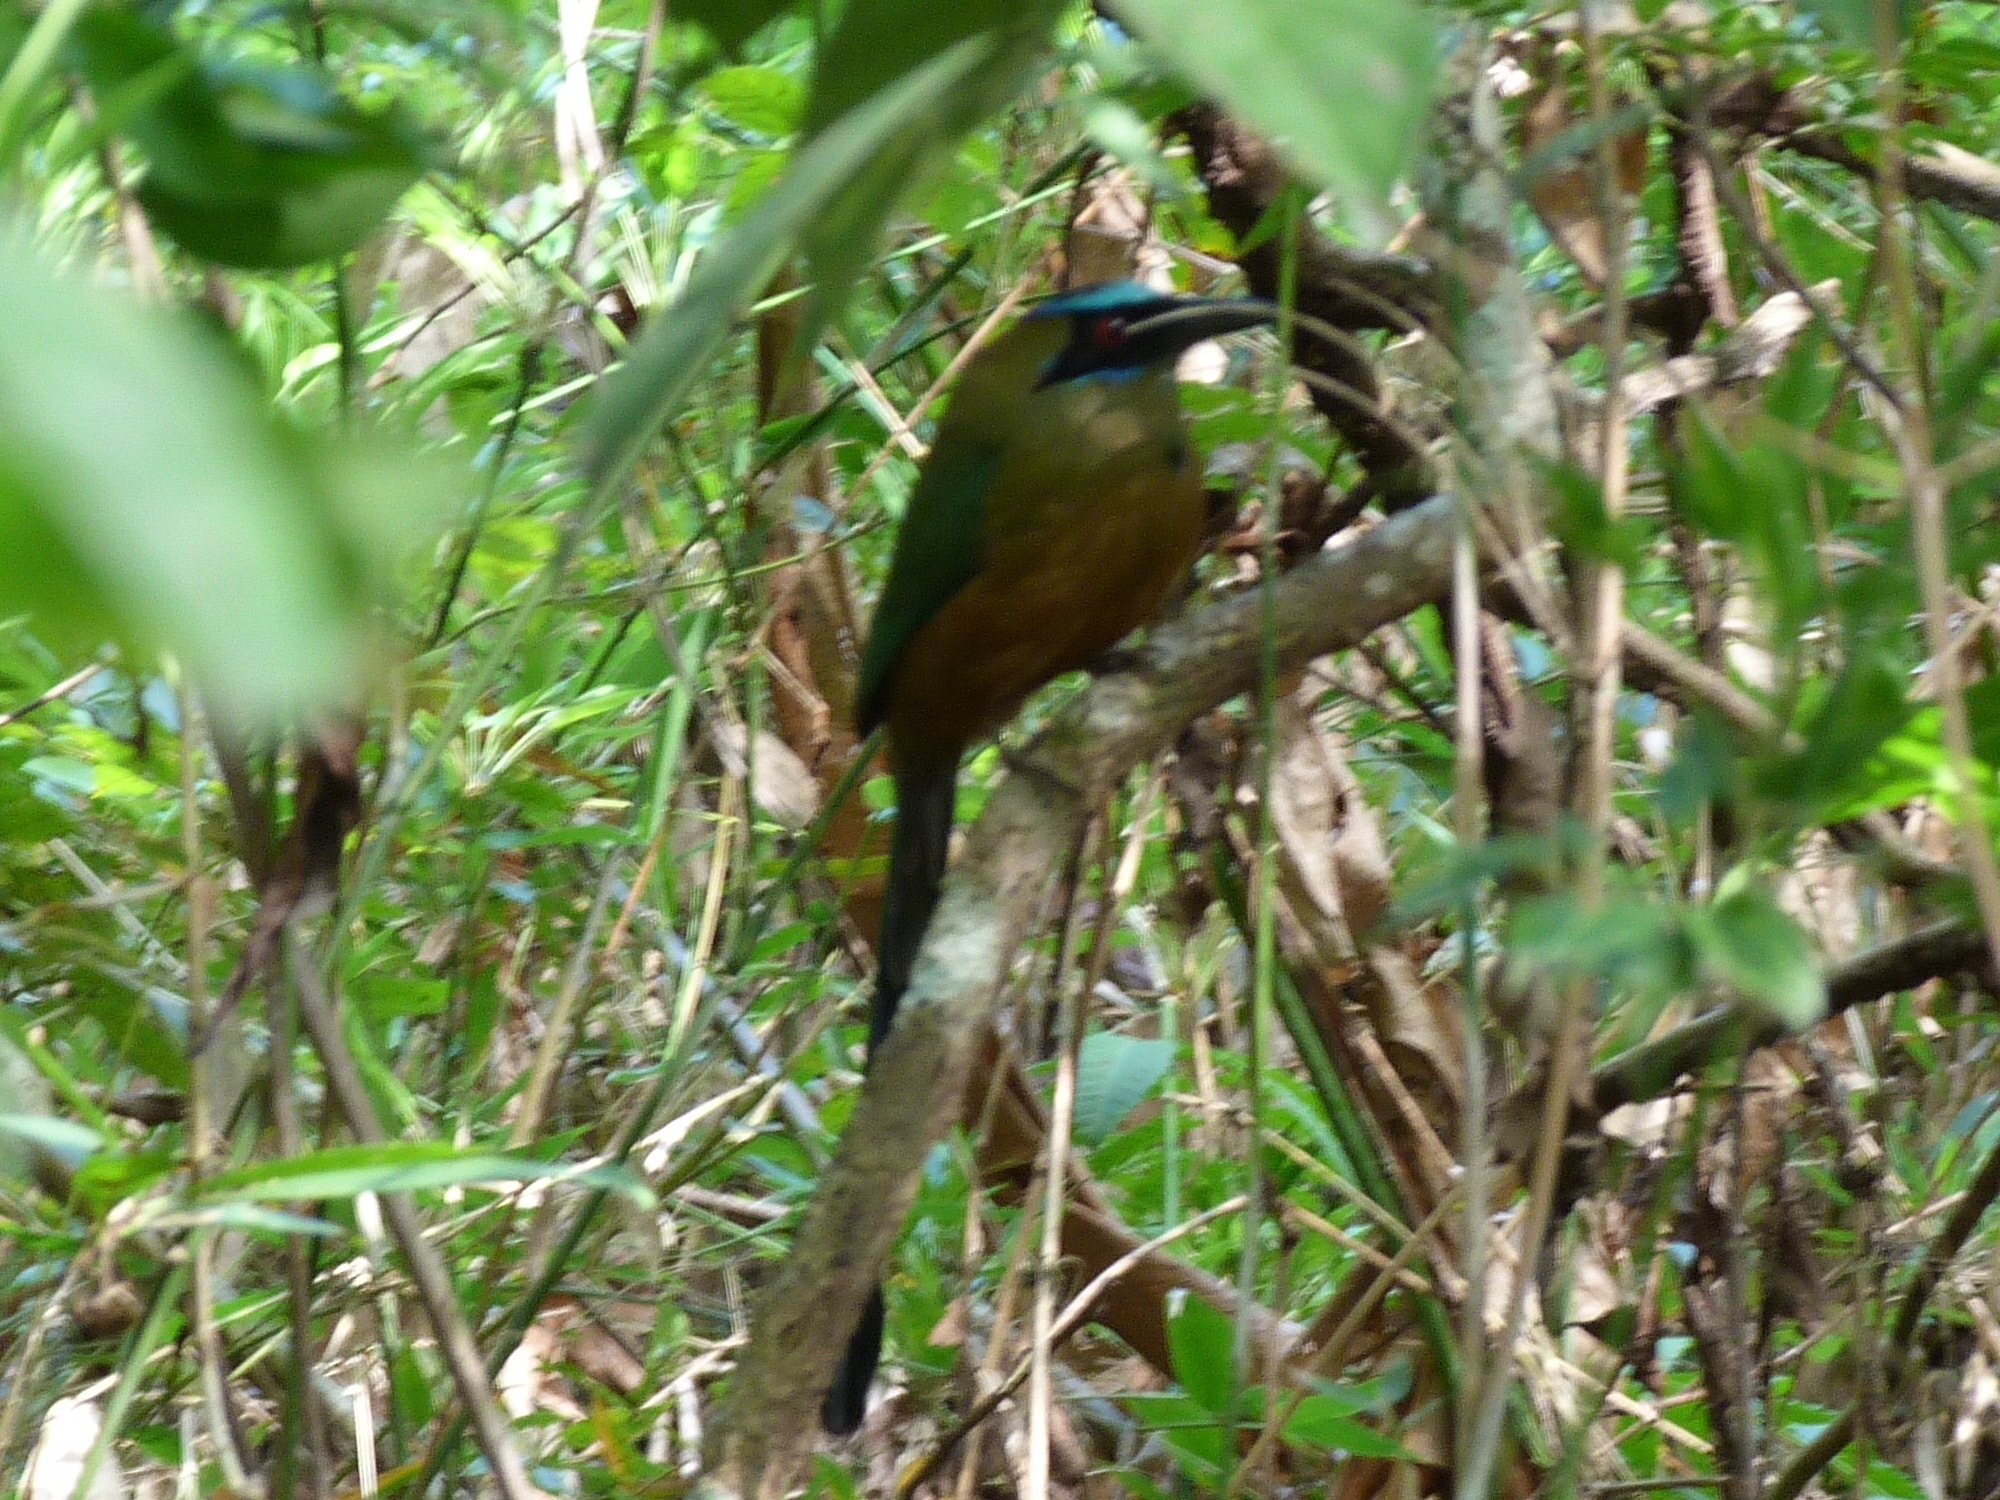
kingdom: Animalia
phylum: Chordata
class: Aves
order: Coraciiformes
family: Momotidae
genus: Momotus
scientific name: Momotus subrufescens
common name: Whooping motmot
